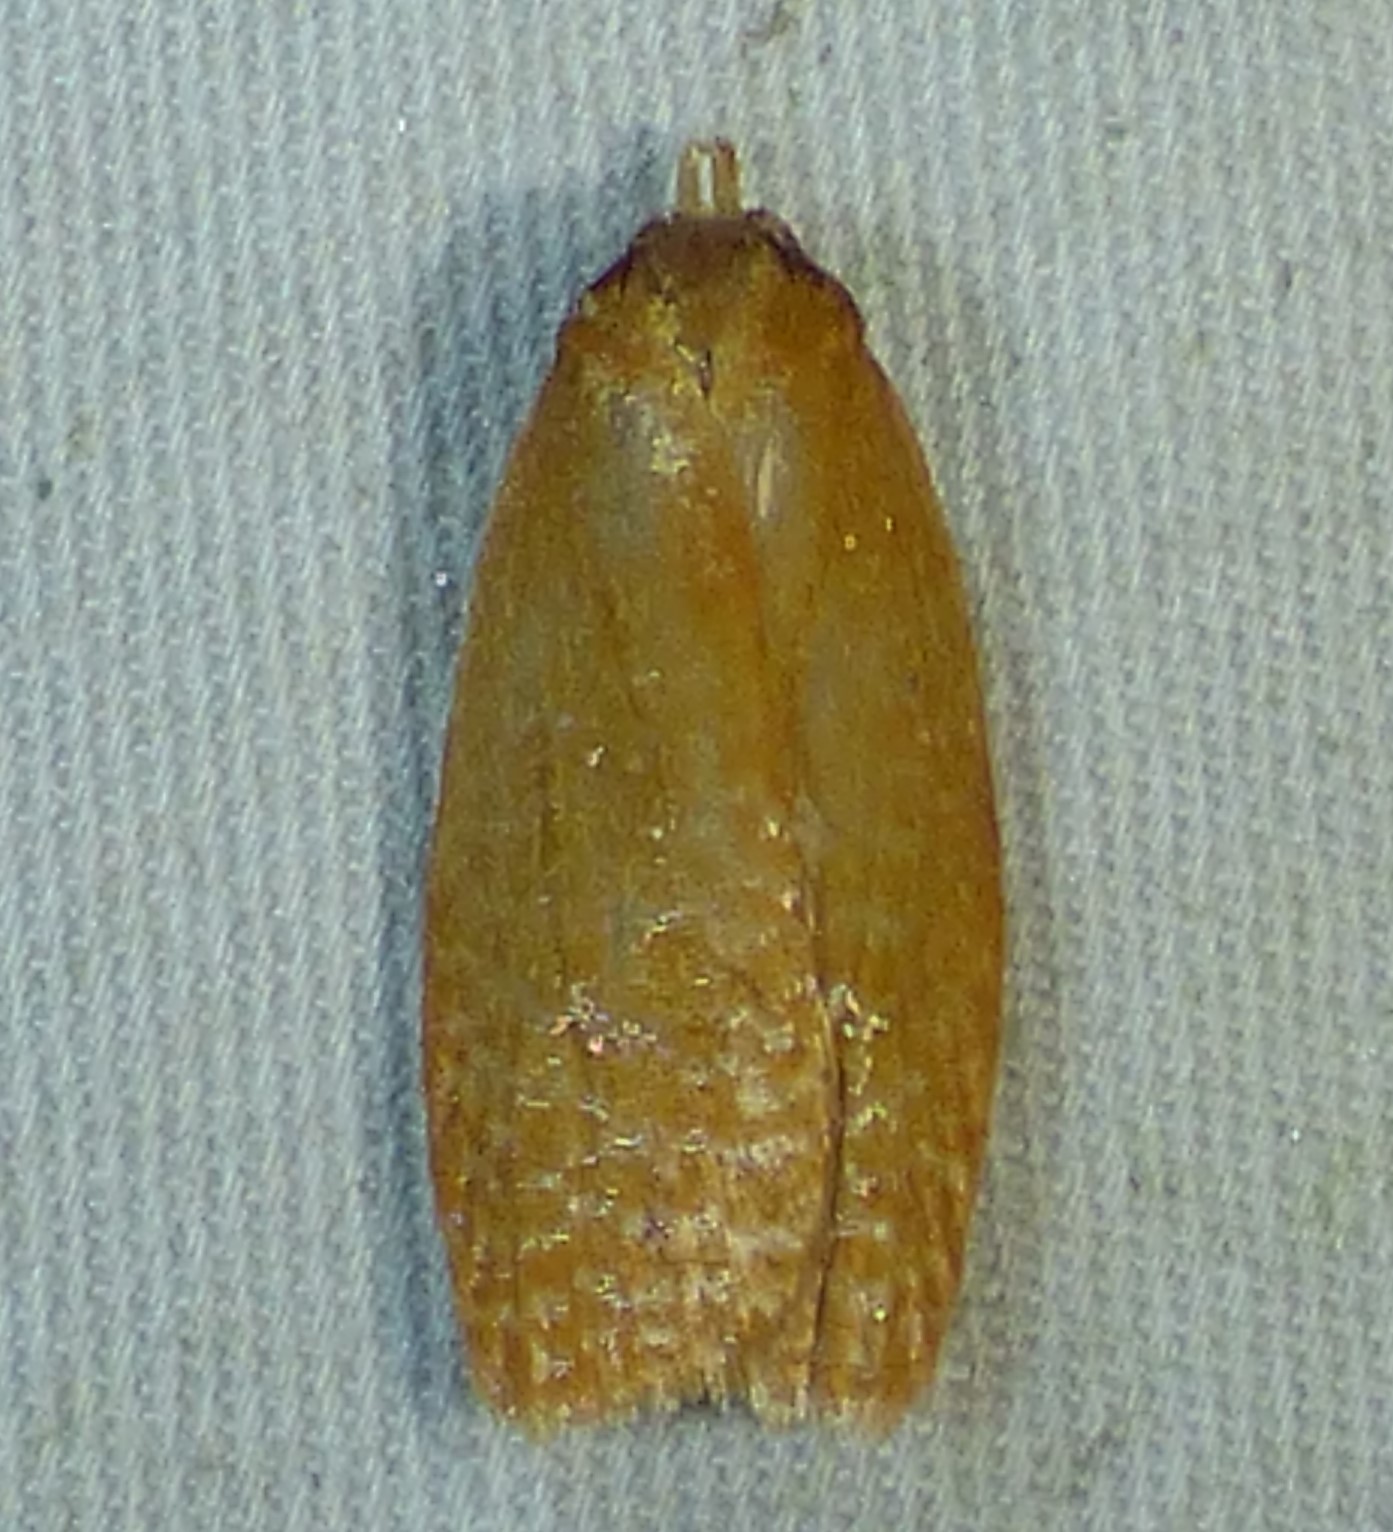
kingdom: Animalia
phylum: Arthropoda
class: Insecta
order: Lepidoptera
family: Tortricidae
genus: Sparganothis
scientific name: Sparganothis distincta
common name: Distinct sparganothis moth
